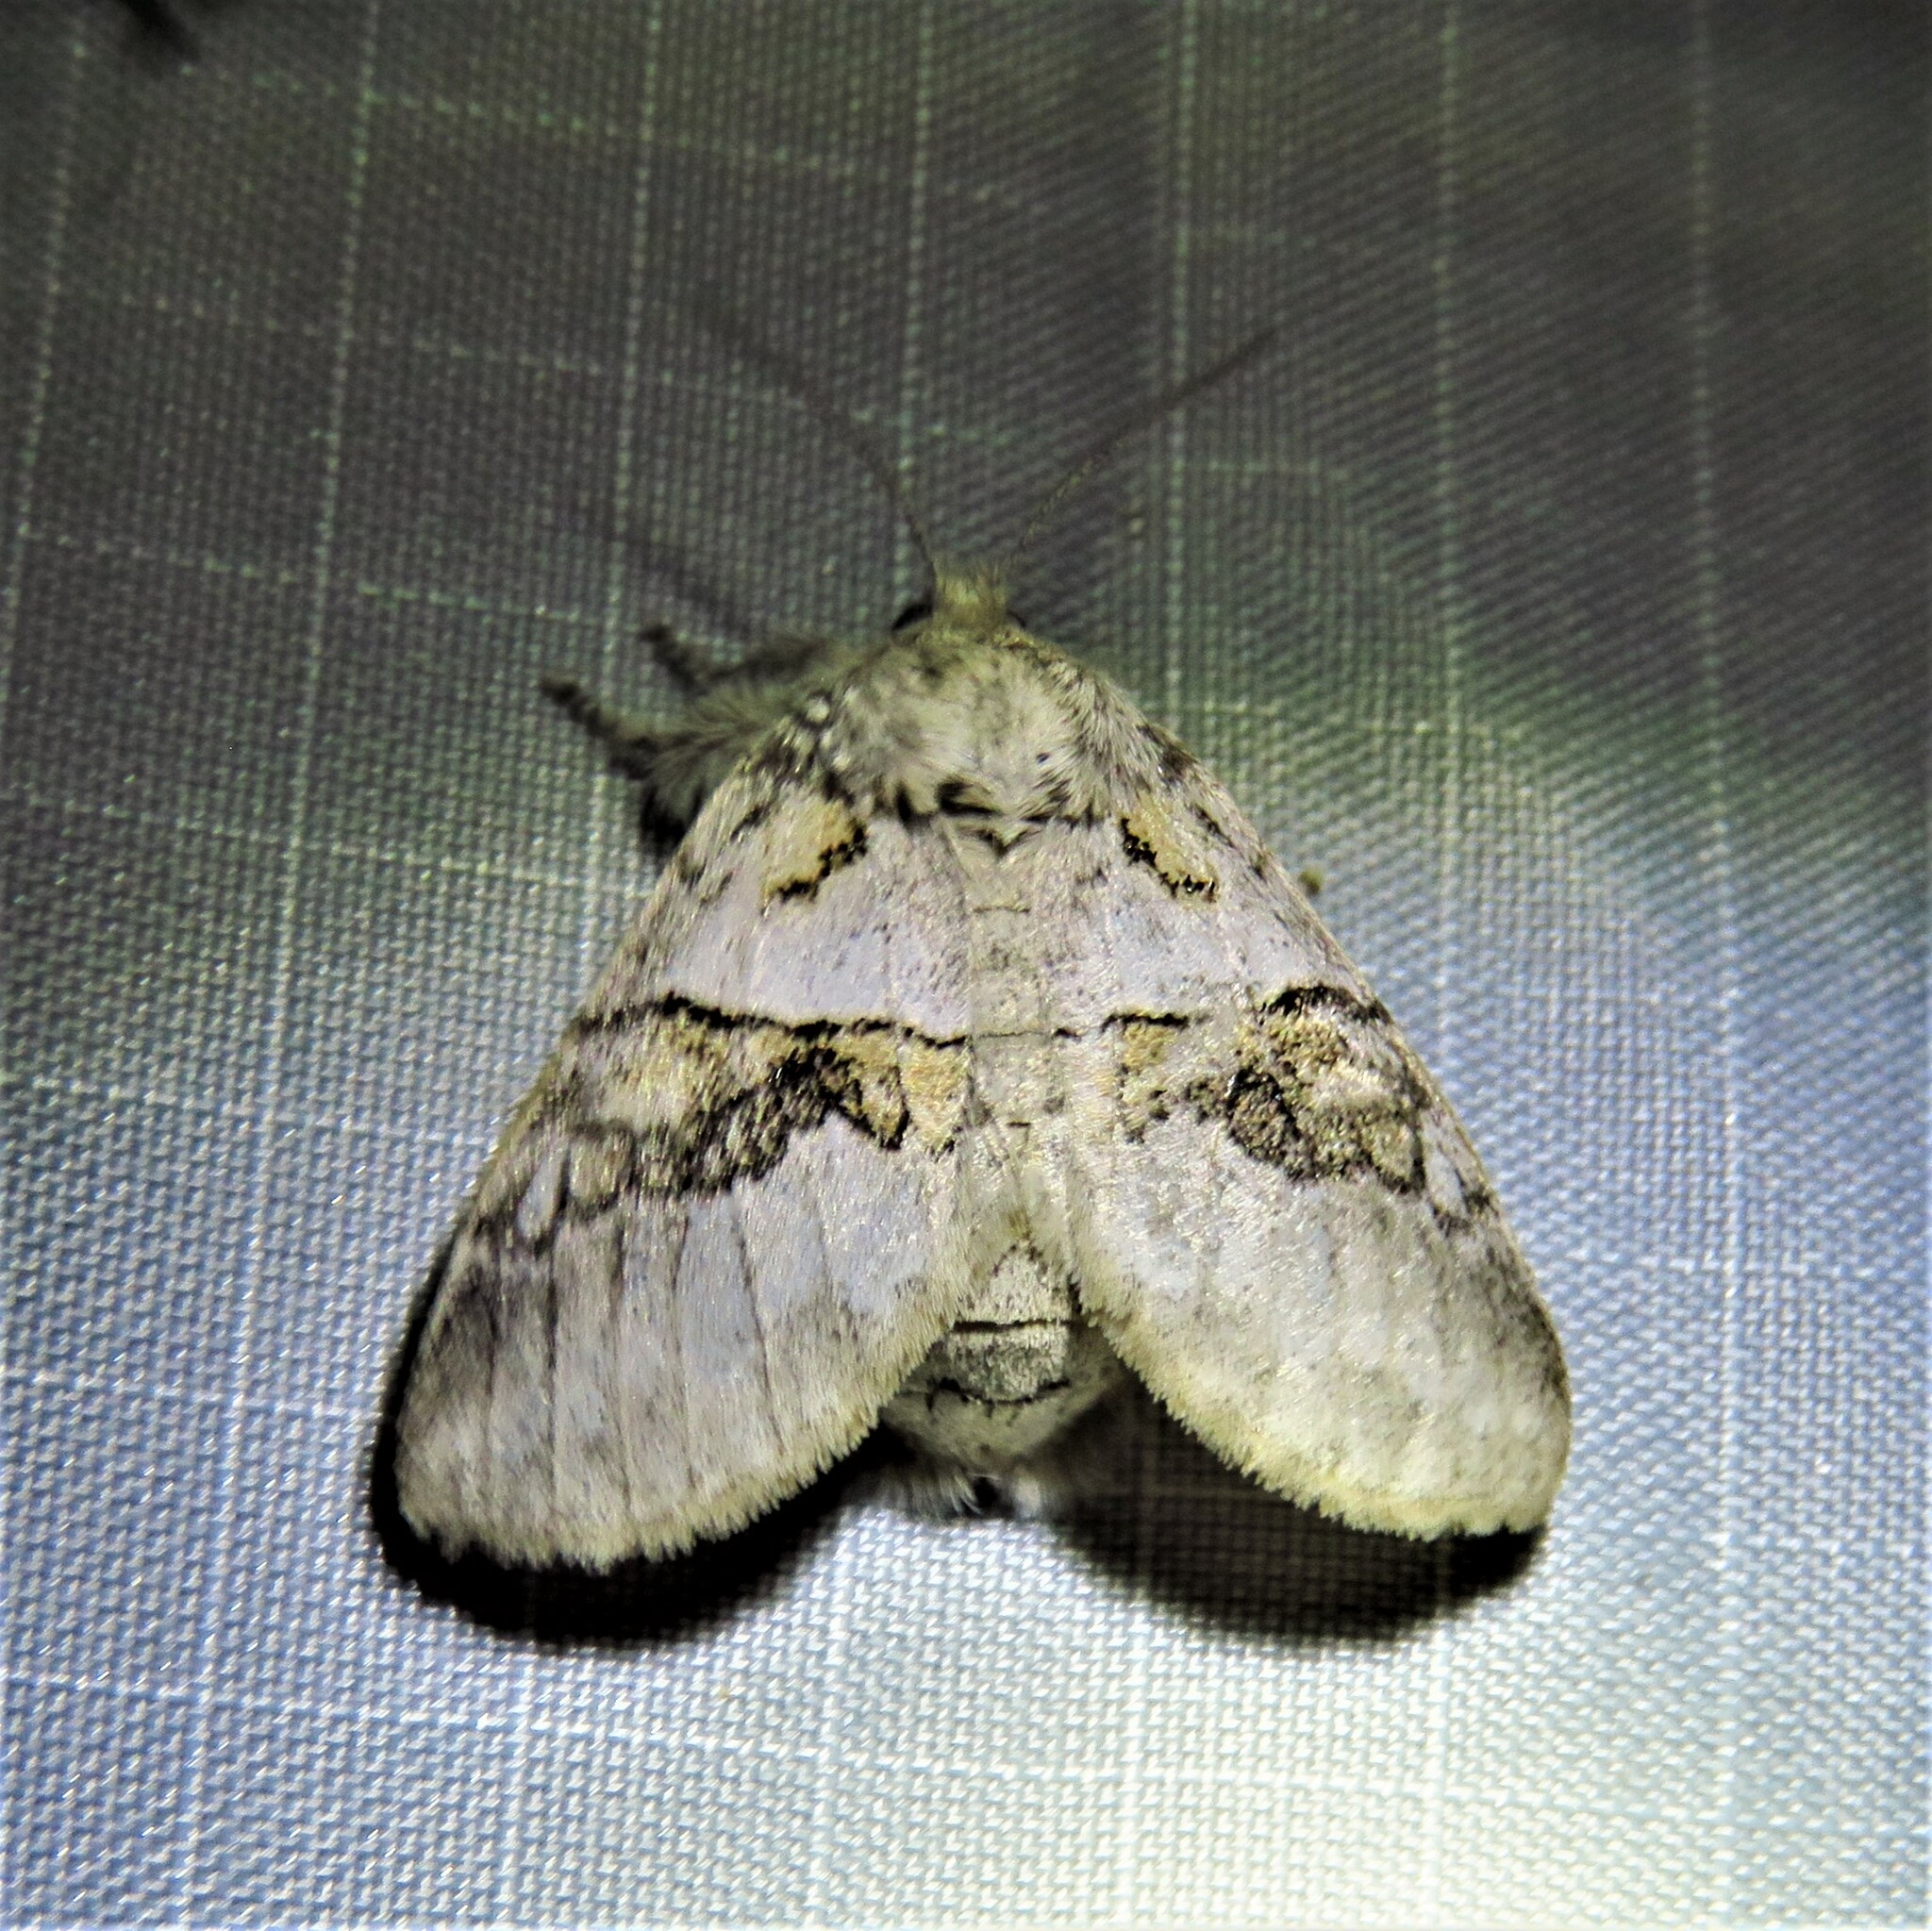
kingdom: Animalia
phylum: Arthropoda
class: Insecta
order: Lepidoptera
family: Notodontidae
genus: Gluphisia
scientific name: Gluphisia septentrionis
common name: Common gluphisia
